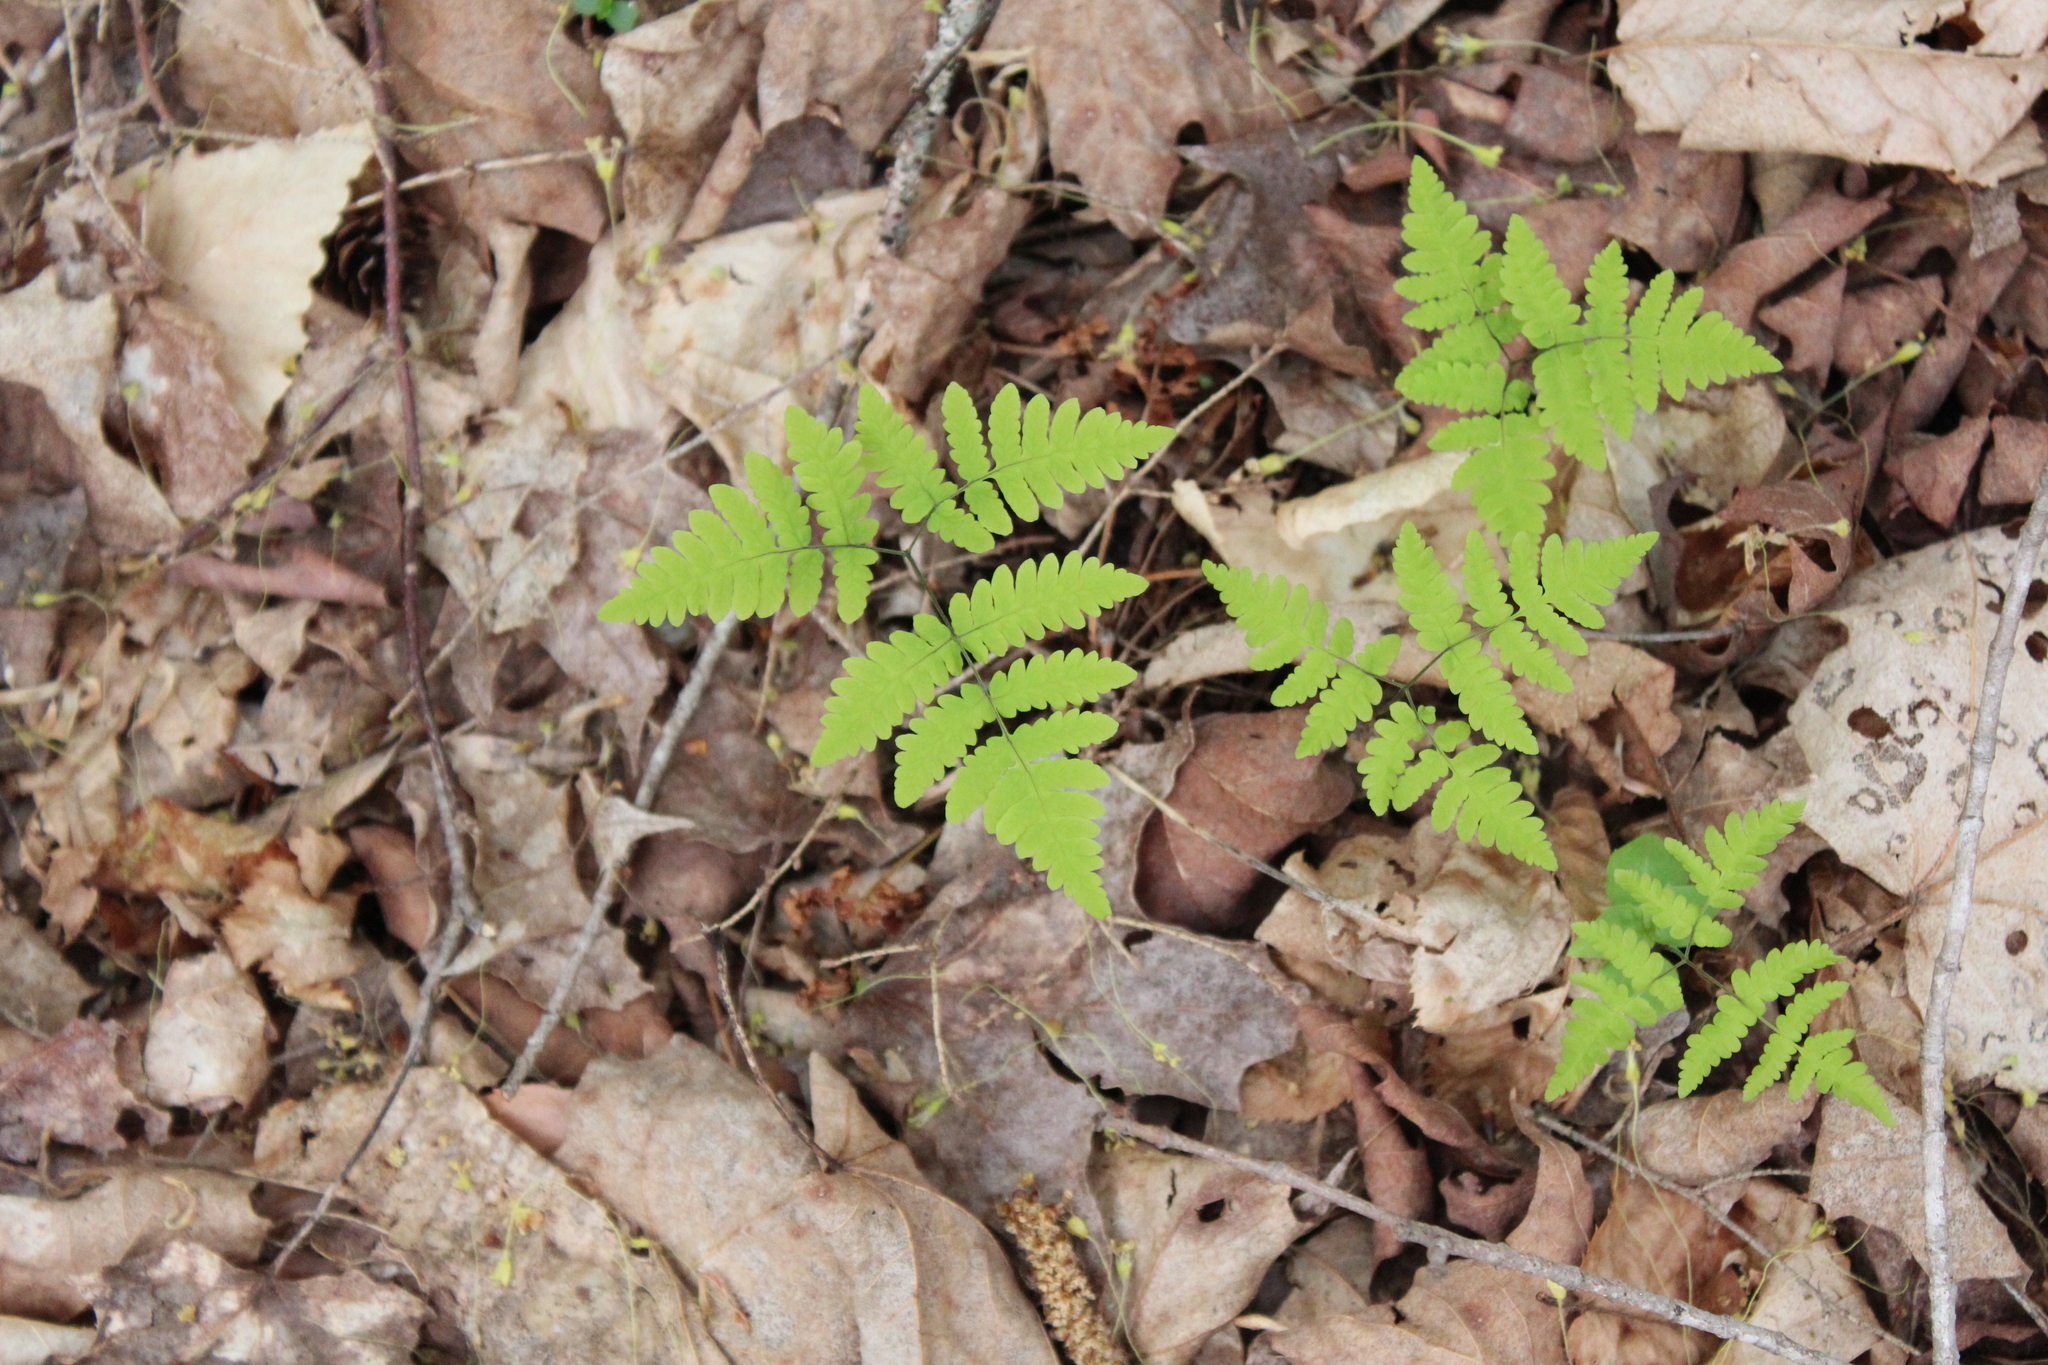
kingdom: Plantae
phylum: Tracheophyta
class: Polypodiopsida
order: Polypodiales
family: Cystopteridaceae
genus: Gymnocarpium
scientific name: Gymnocarpium dryopteris
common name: Oak fern
